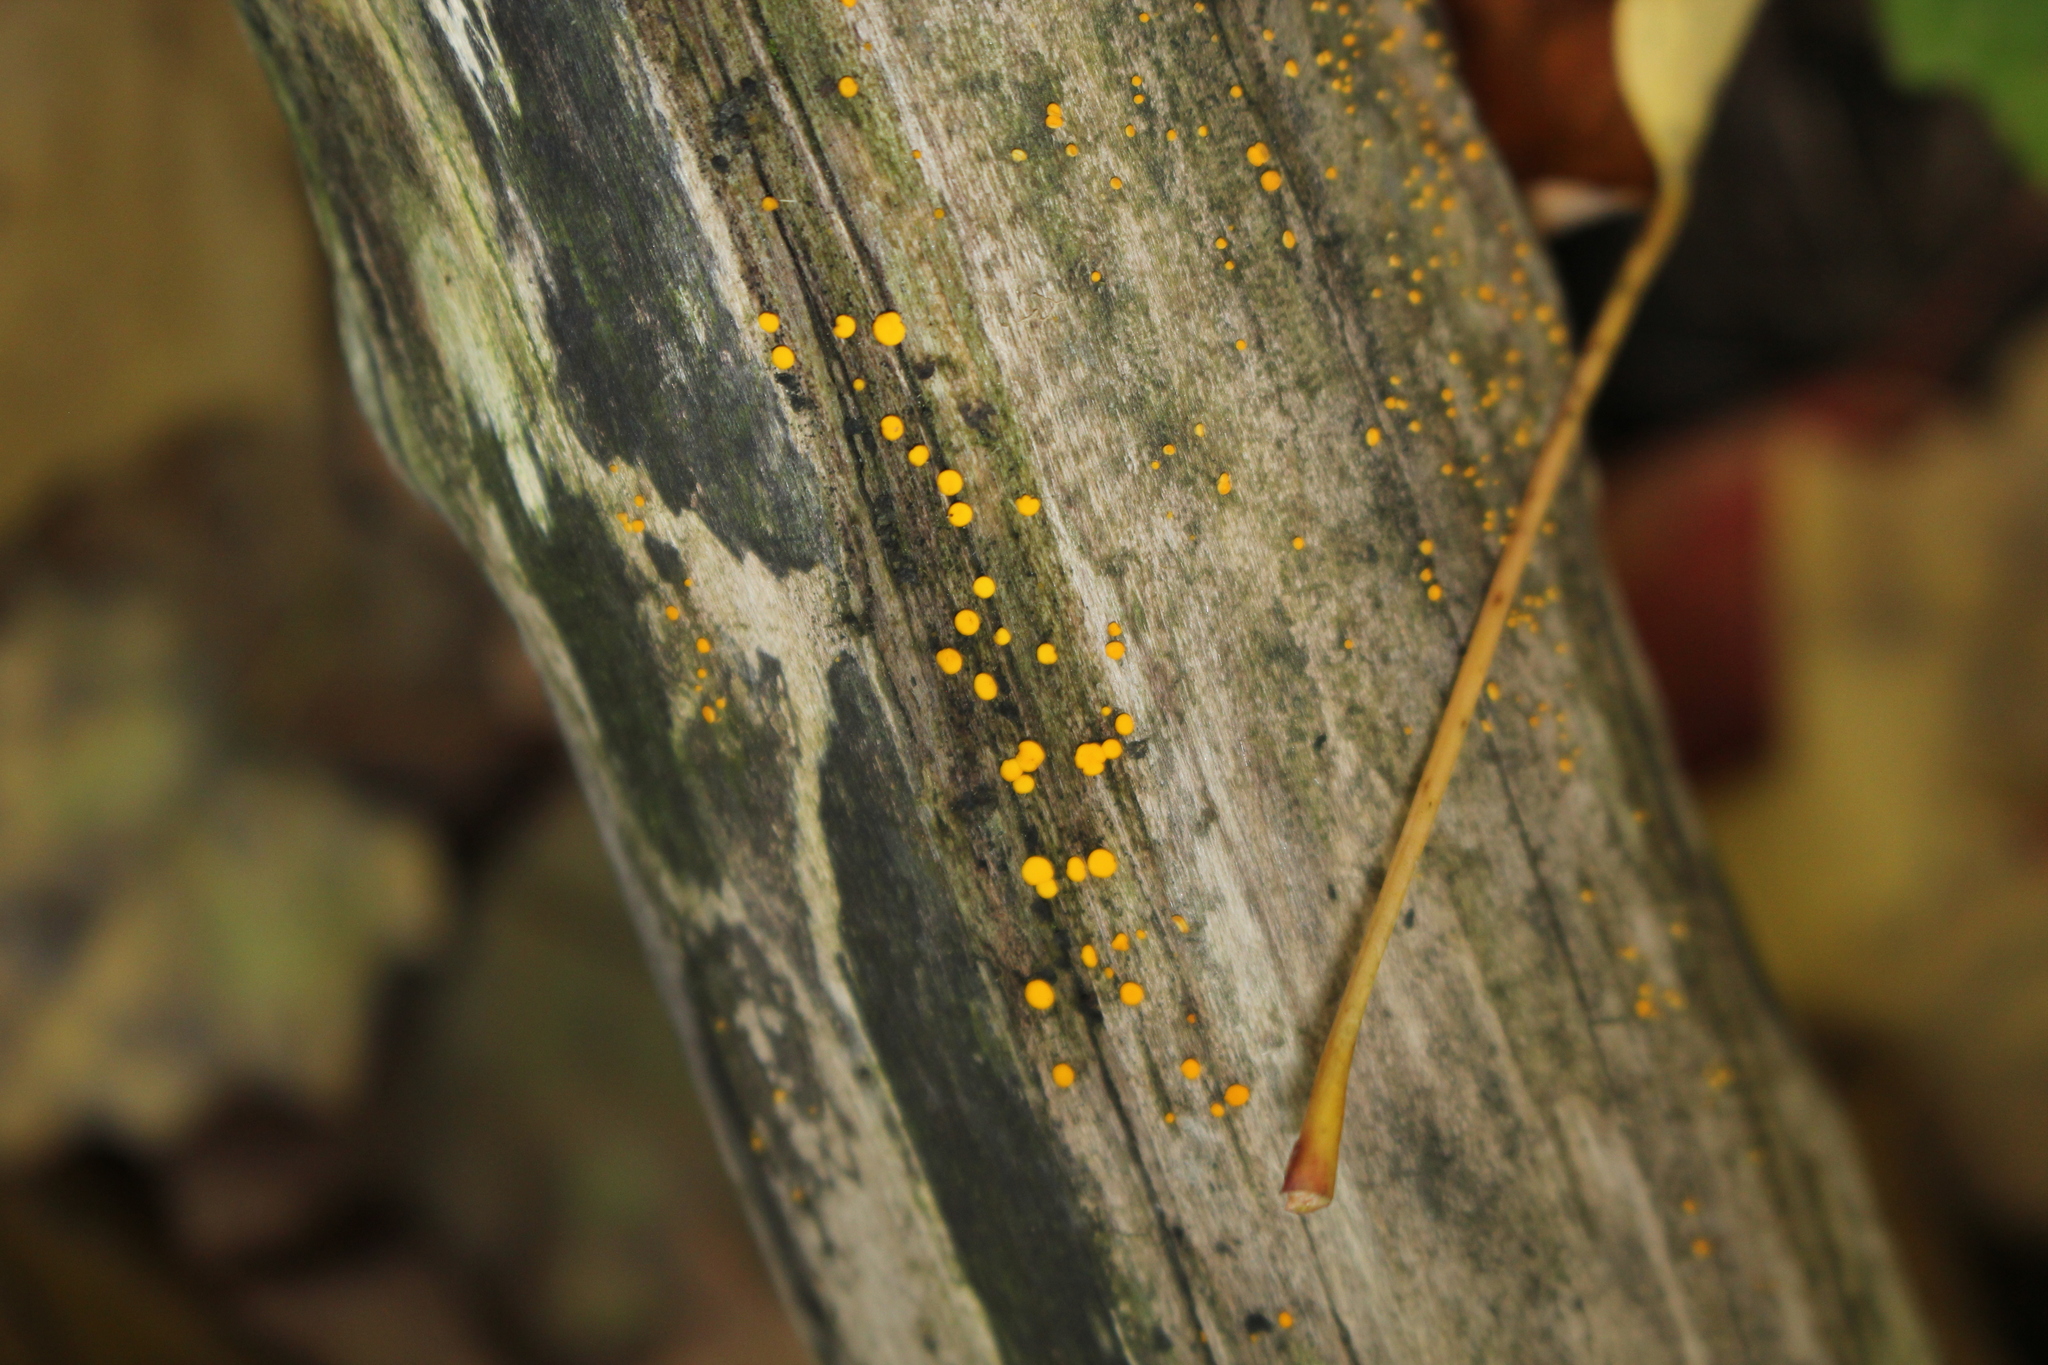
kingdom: Fungi
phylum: Ascomycota
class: Leotiomycetes
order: Helotiales
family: Pezizellaceae
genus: Calycina
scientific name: Calycina citrina
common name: Yellow fairy cups
